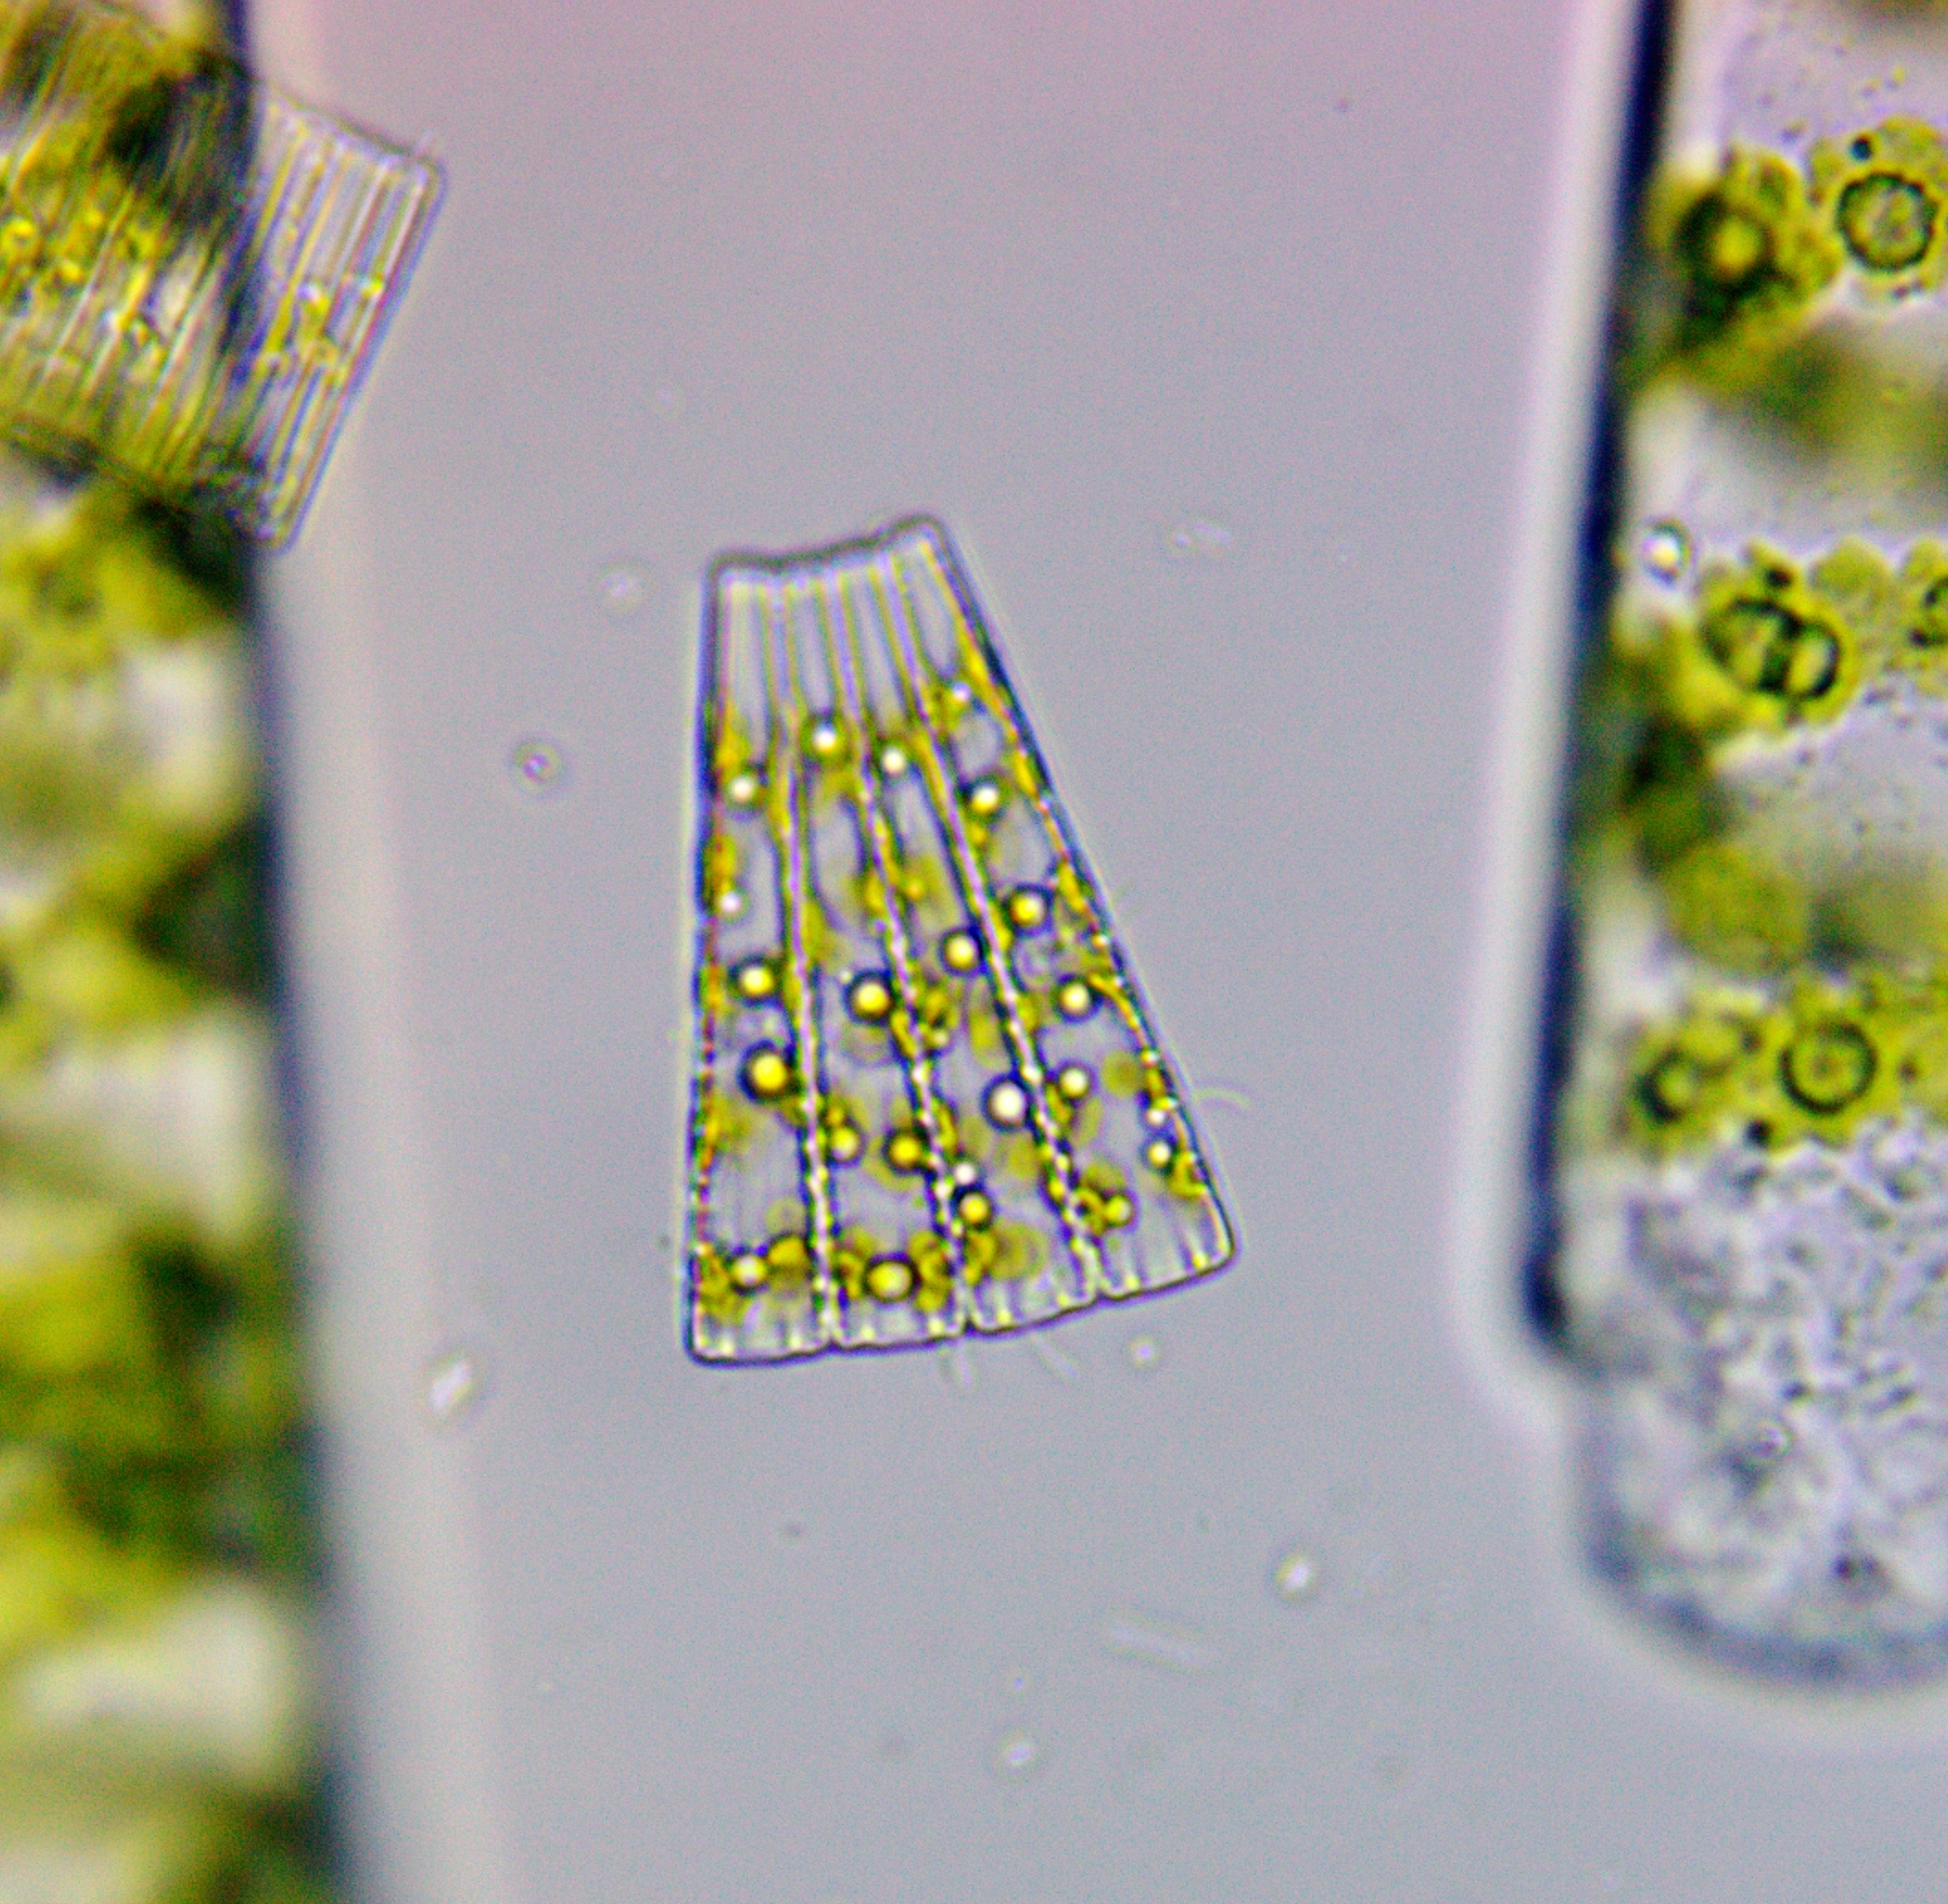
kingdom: Chromista
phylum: Ochrophyta
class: Bacillariophyceae
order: Tabellariales
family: Tabellariaceae
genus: Meridion
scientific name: Meridion
